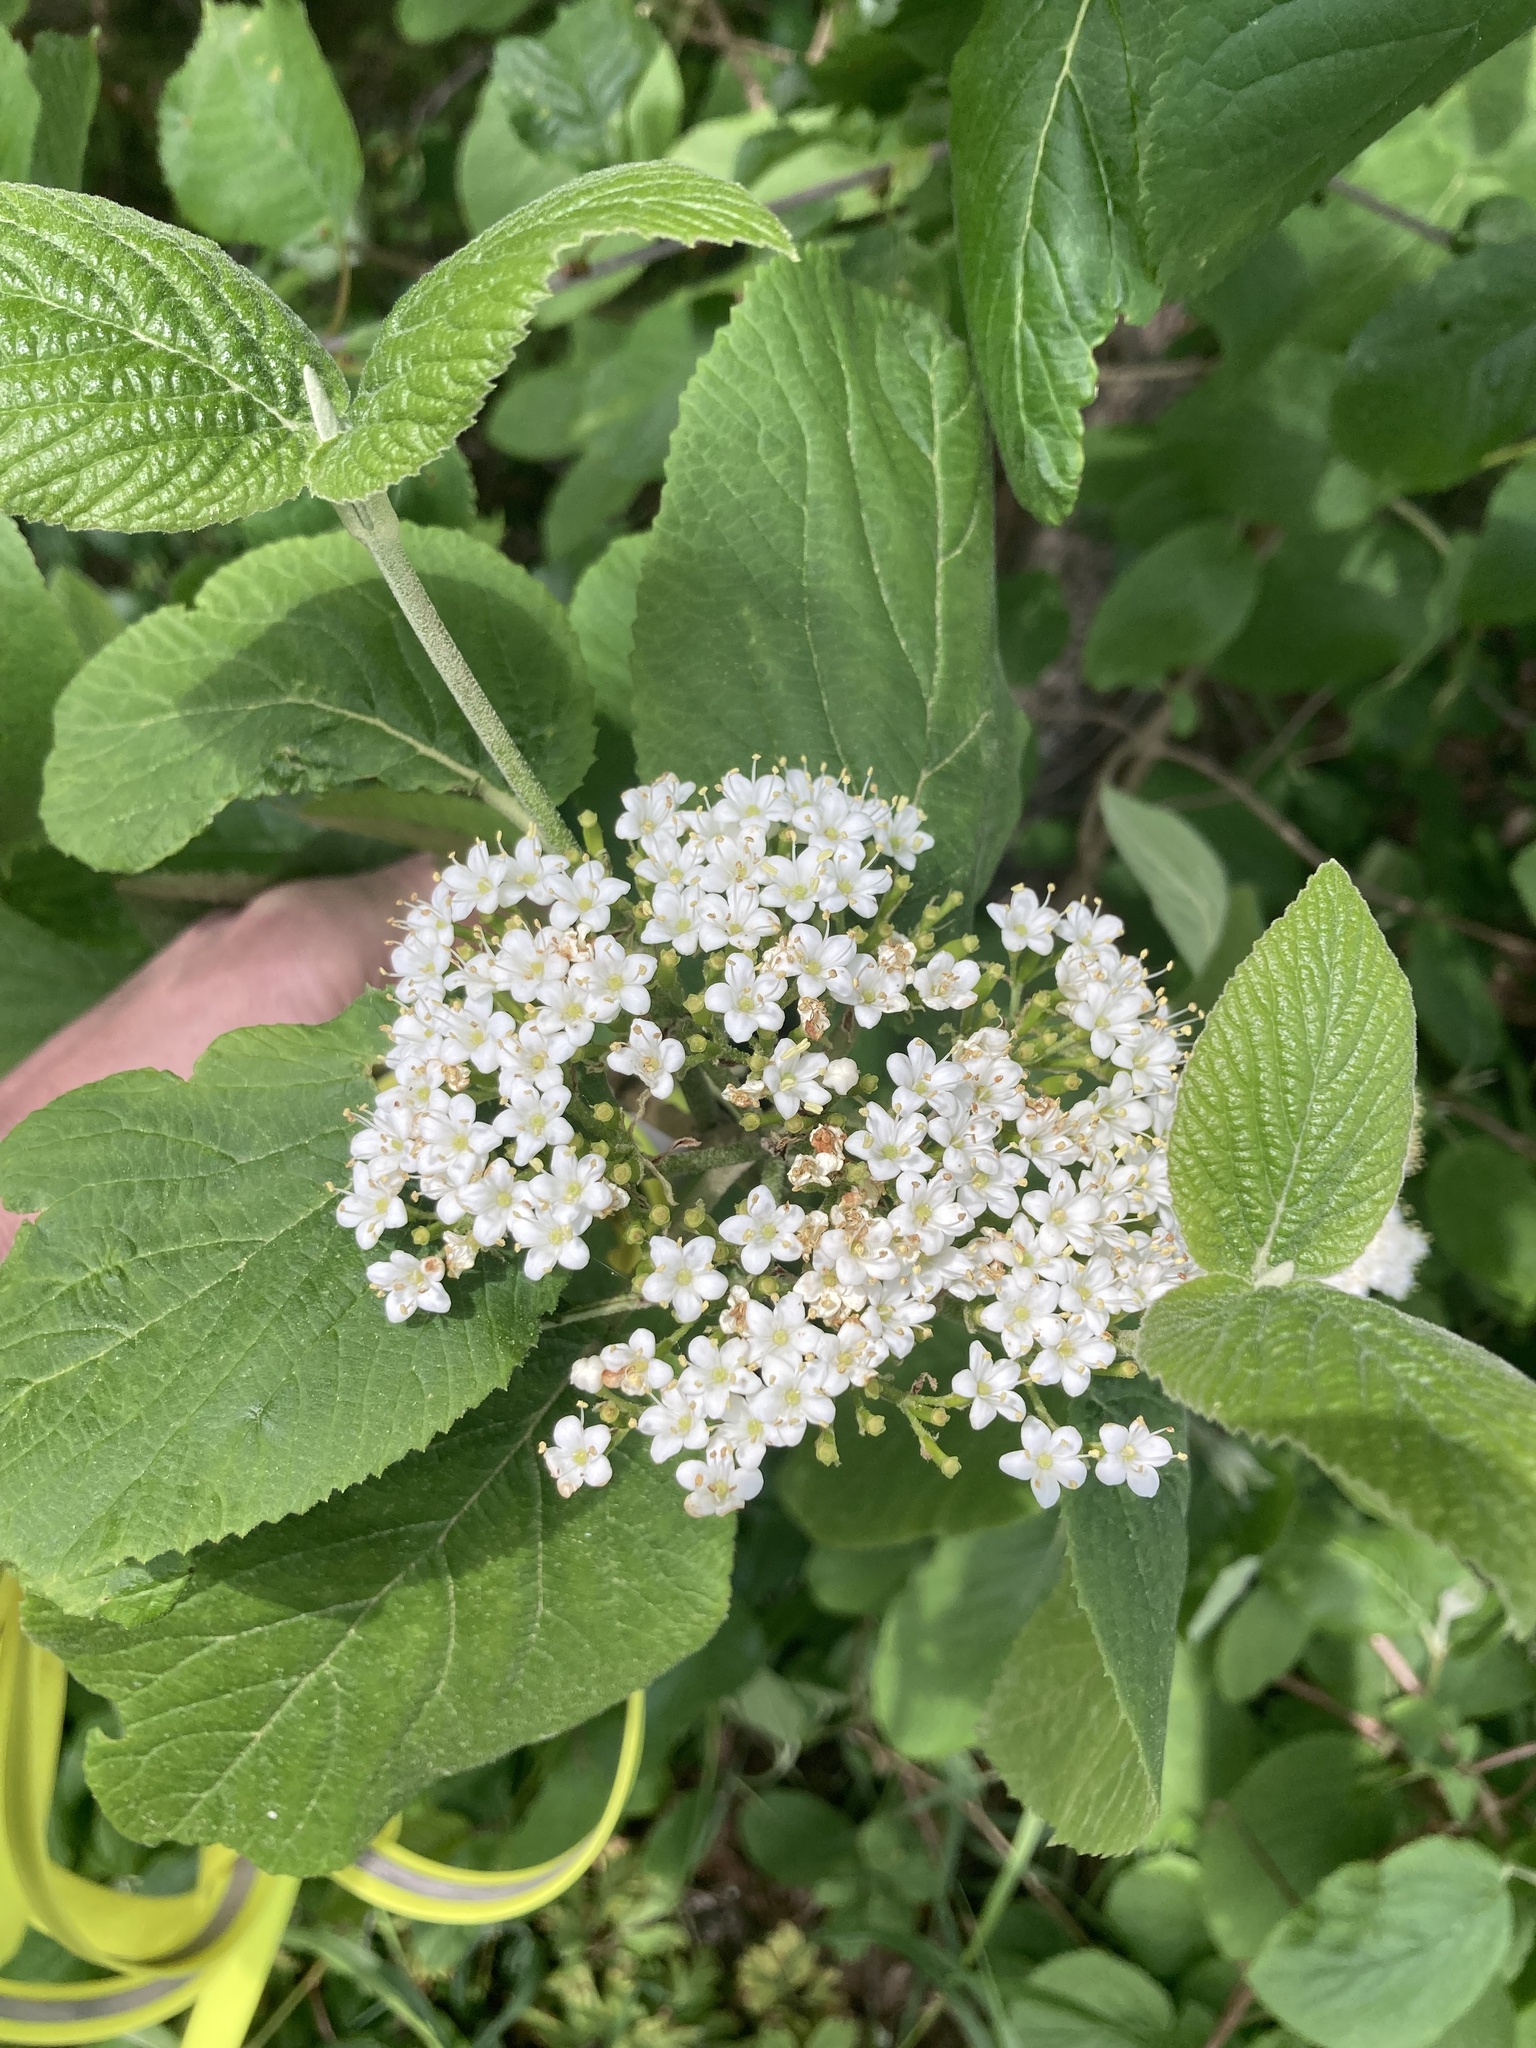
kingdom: Plantae
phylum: Tracheophyta
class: Magnoliopsida
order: Dipsacales
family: Viburnaceae
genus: Viburnum
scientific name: Viburnum lantana
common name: Wayfaring tree
